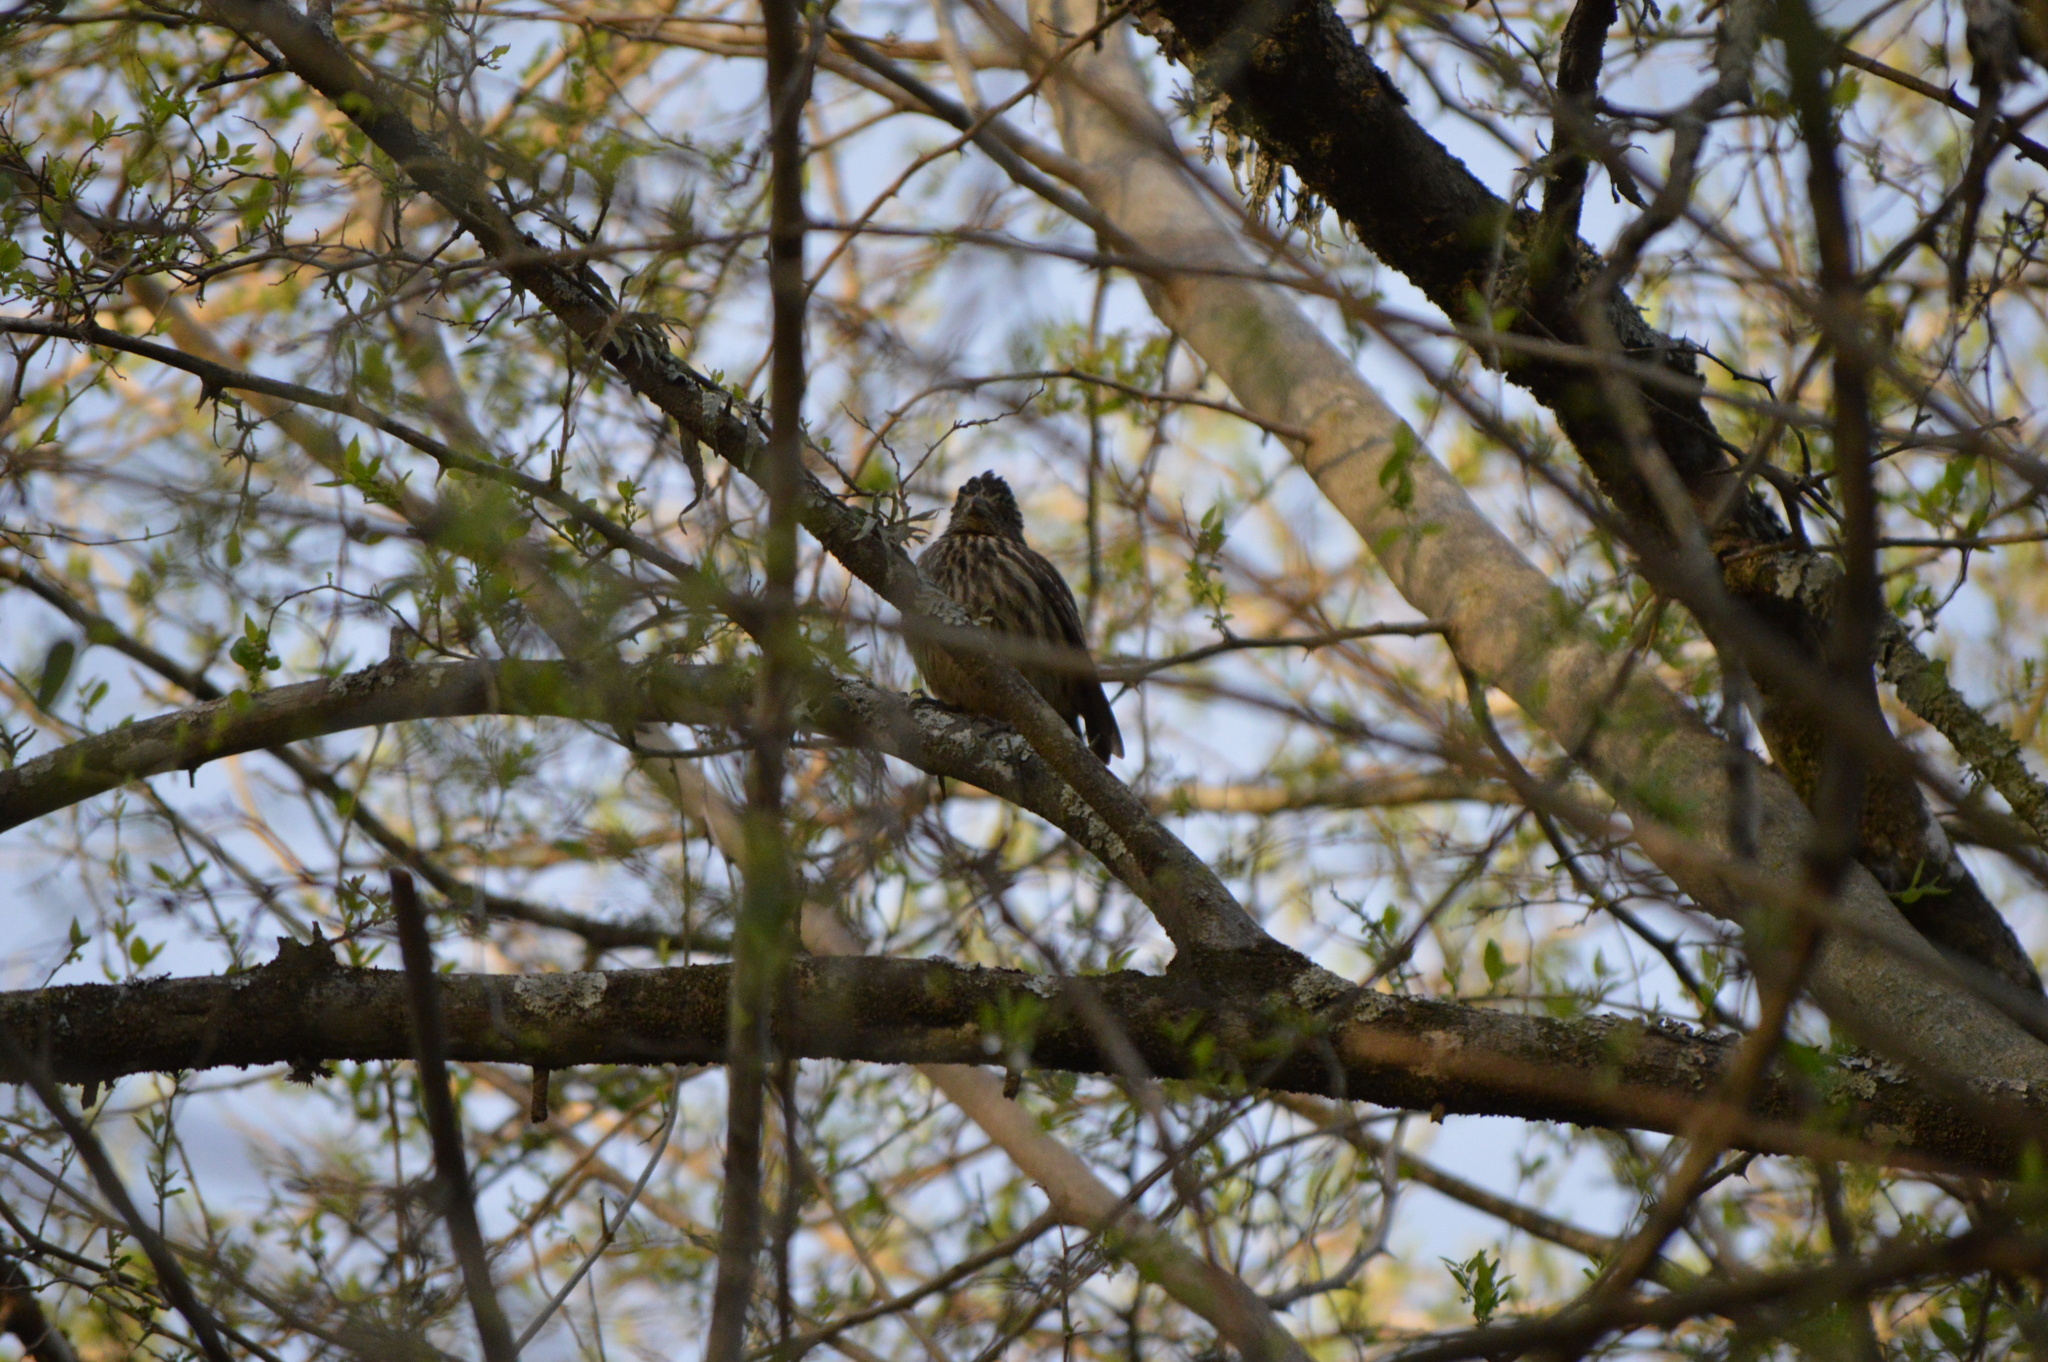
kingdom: Animalia
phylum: Chordata
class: Aves
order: Passeriformes
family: Cotingidae
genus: Phytotoma
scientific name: Phytotoma rutila
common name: White-tipped plantcutter
